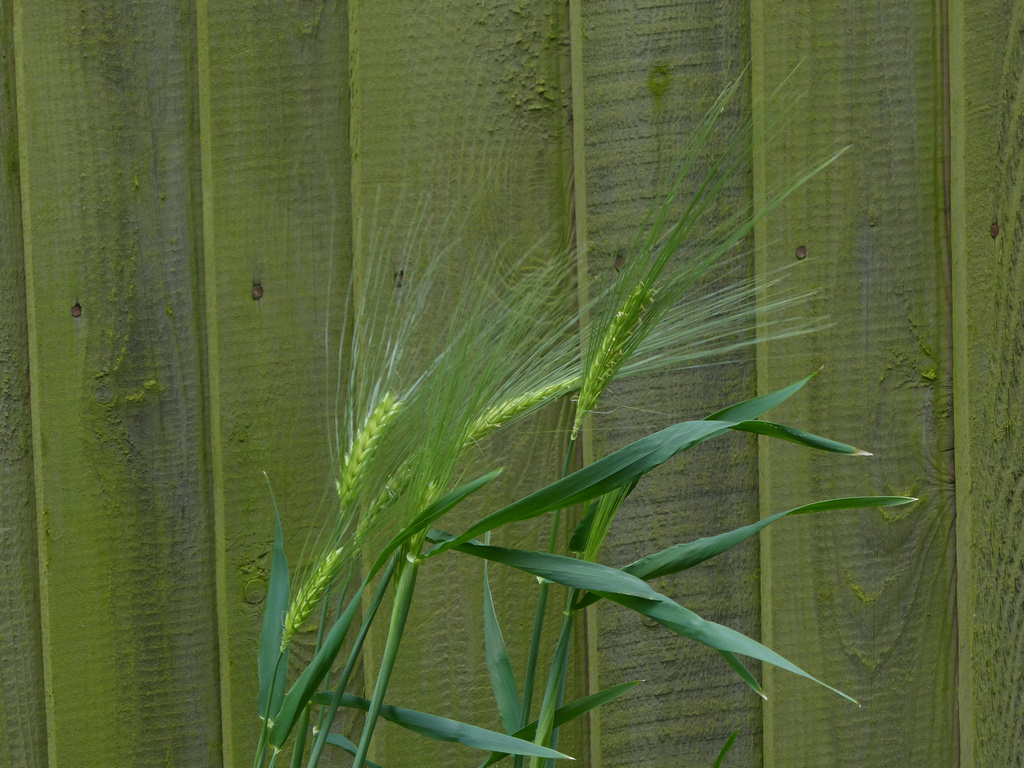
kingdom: Plantae
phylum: Tracheophyta
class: Liliopsida
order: Poales
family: Poaceae
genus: Hordeum
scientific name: Hordeum vulgare
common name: Common barley
